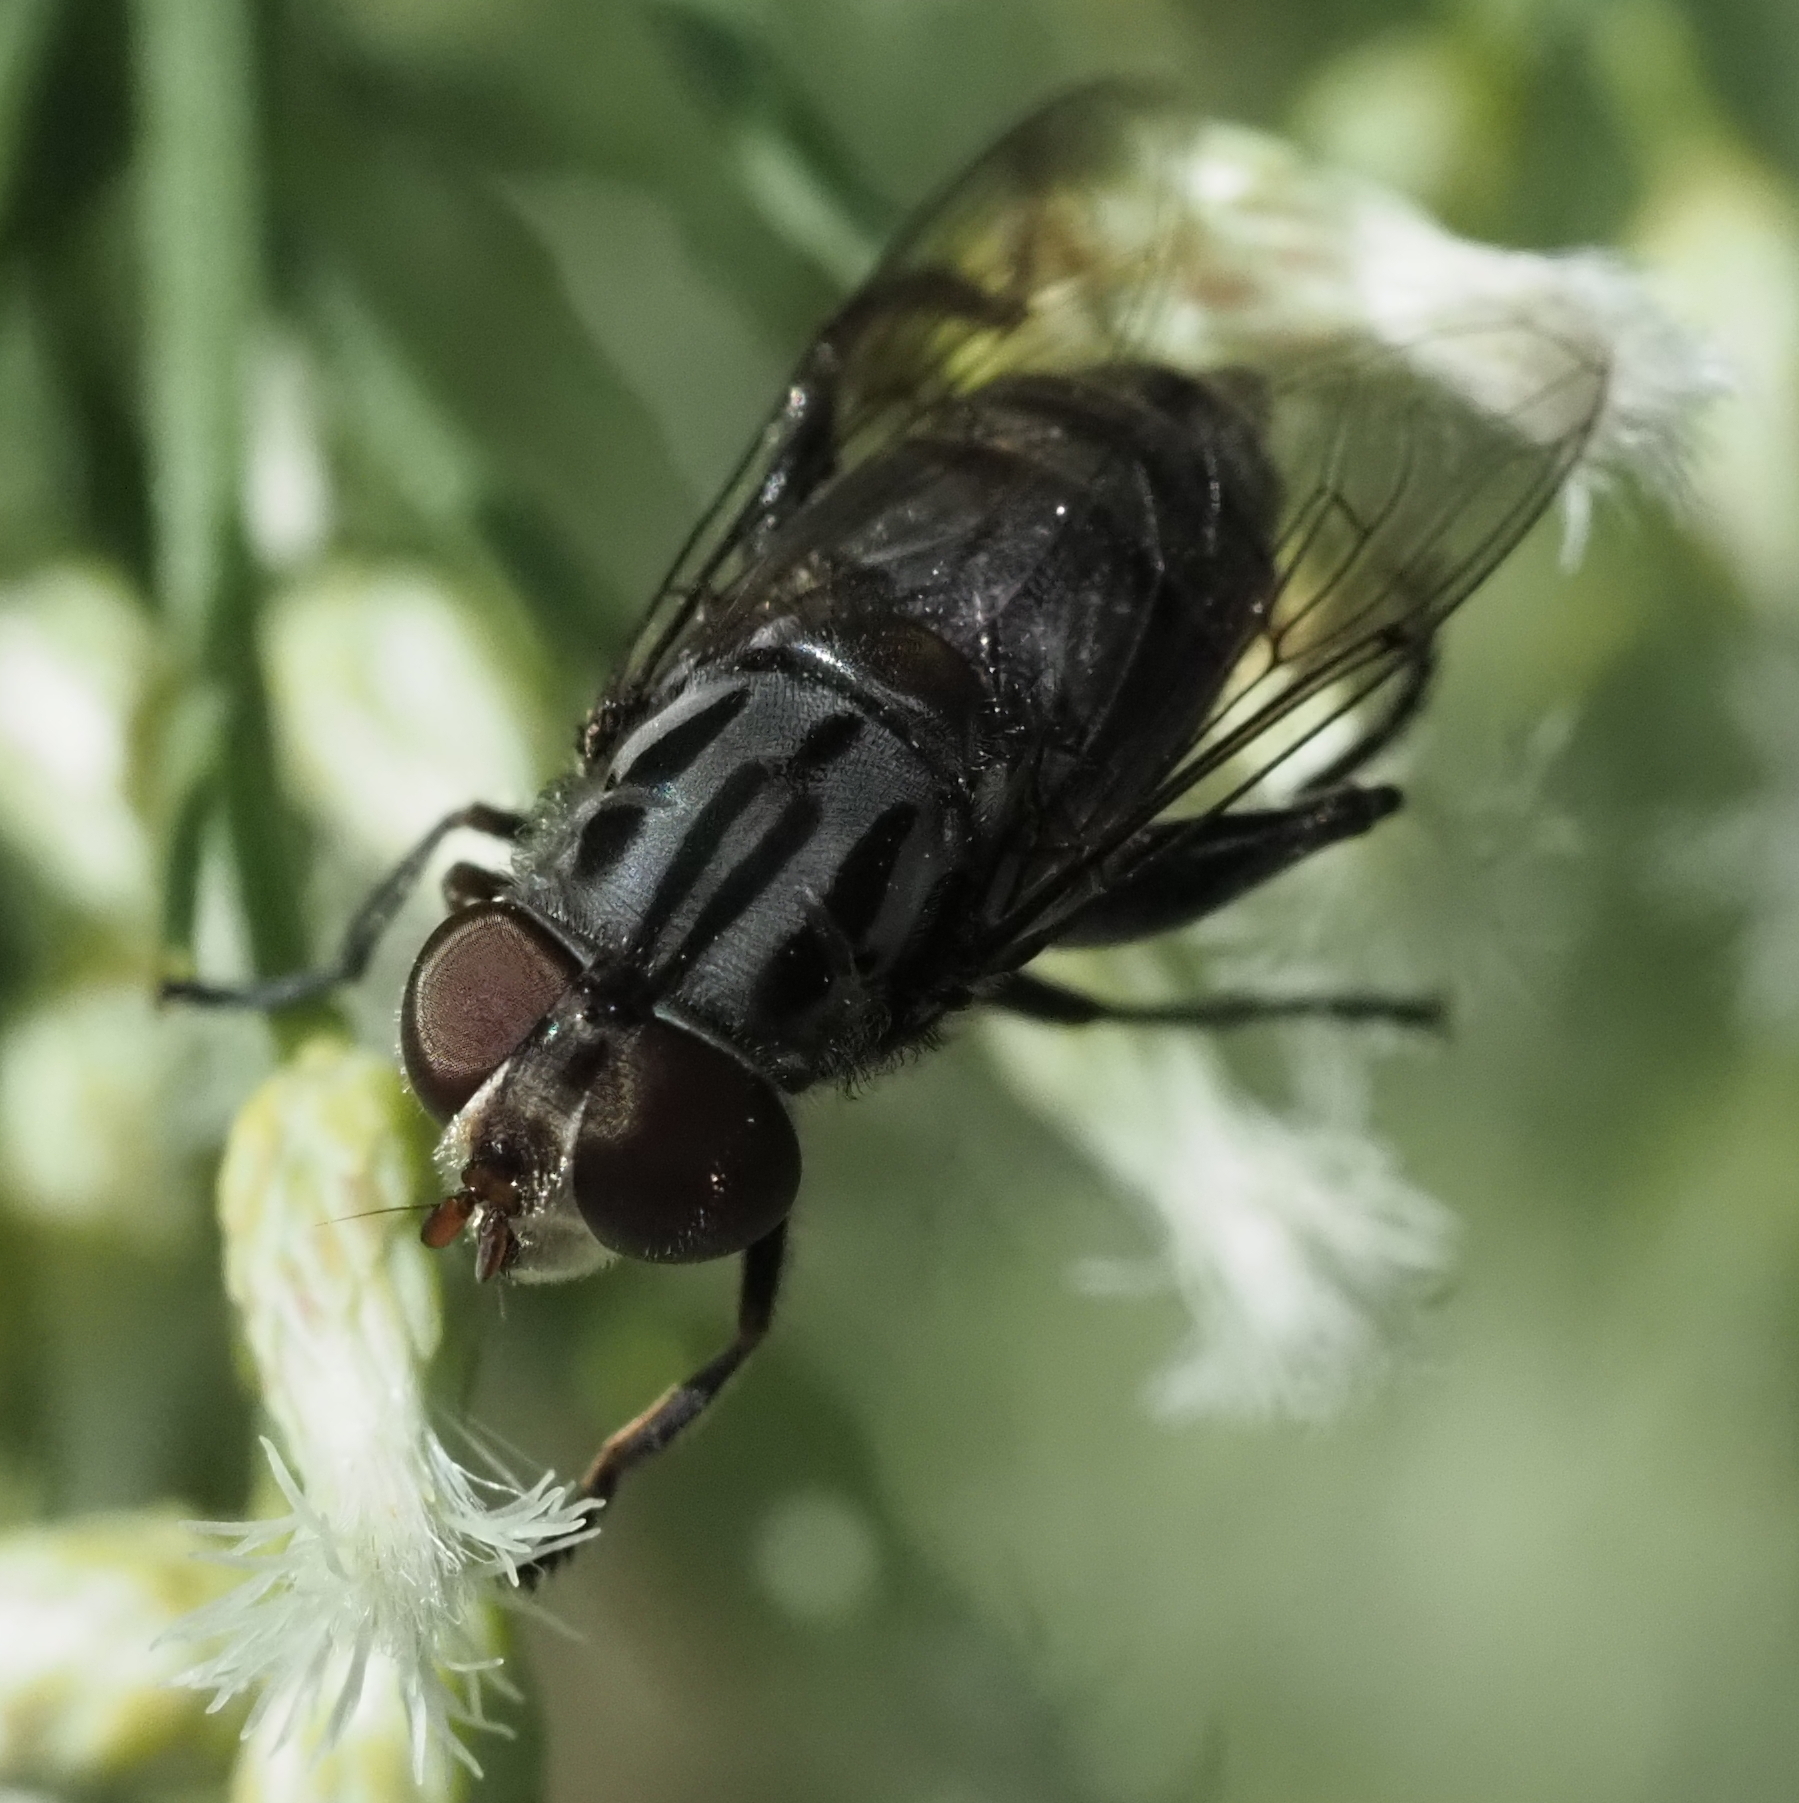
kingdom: Animalia
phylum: Arthropoda
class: Insecta
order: Diptera
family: Syrphidae
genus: Palpada
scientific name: Palpada furcata
